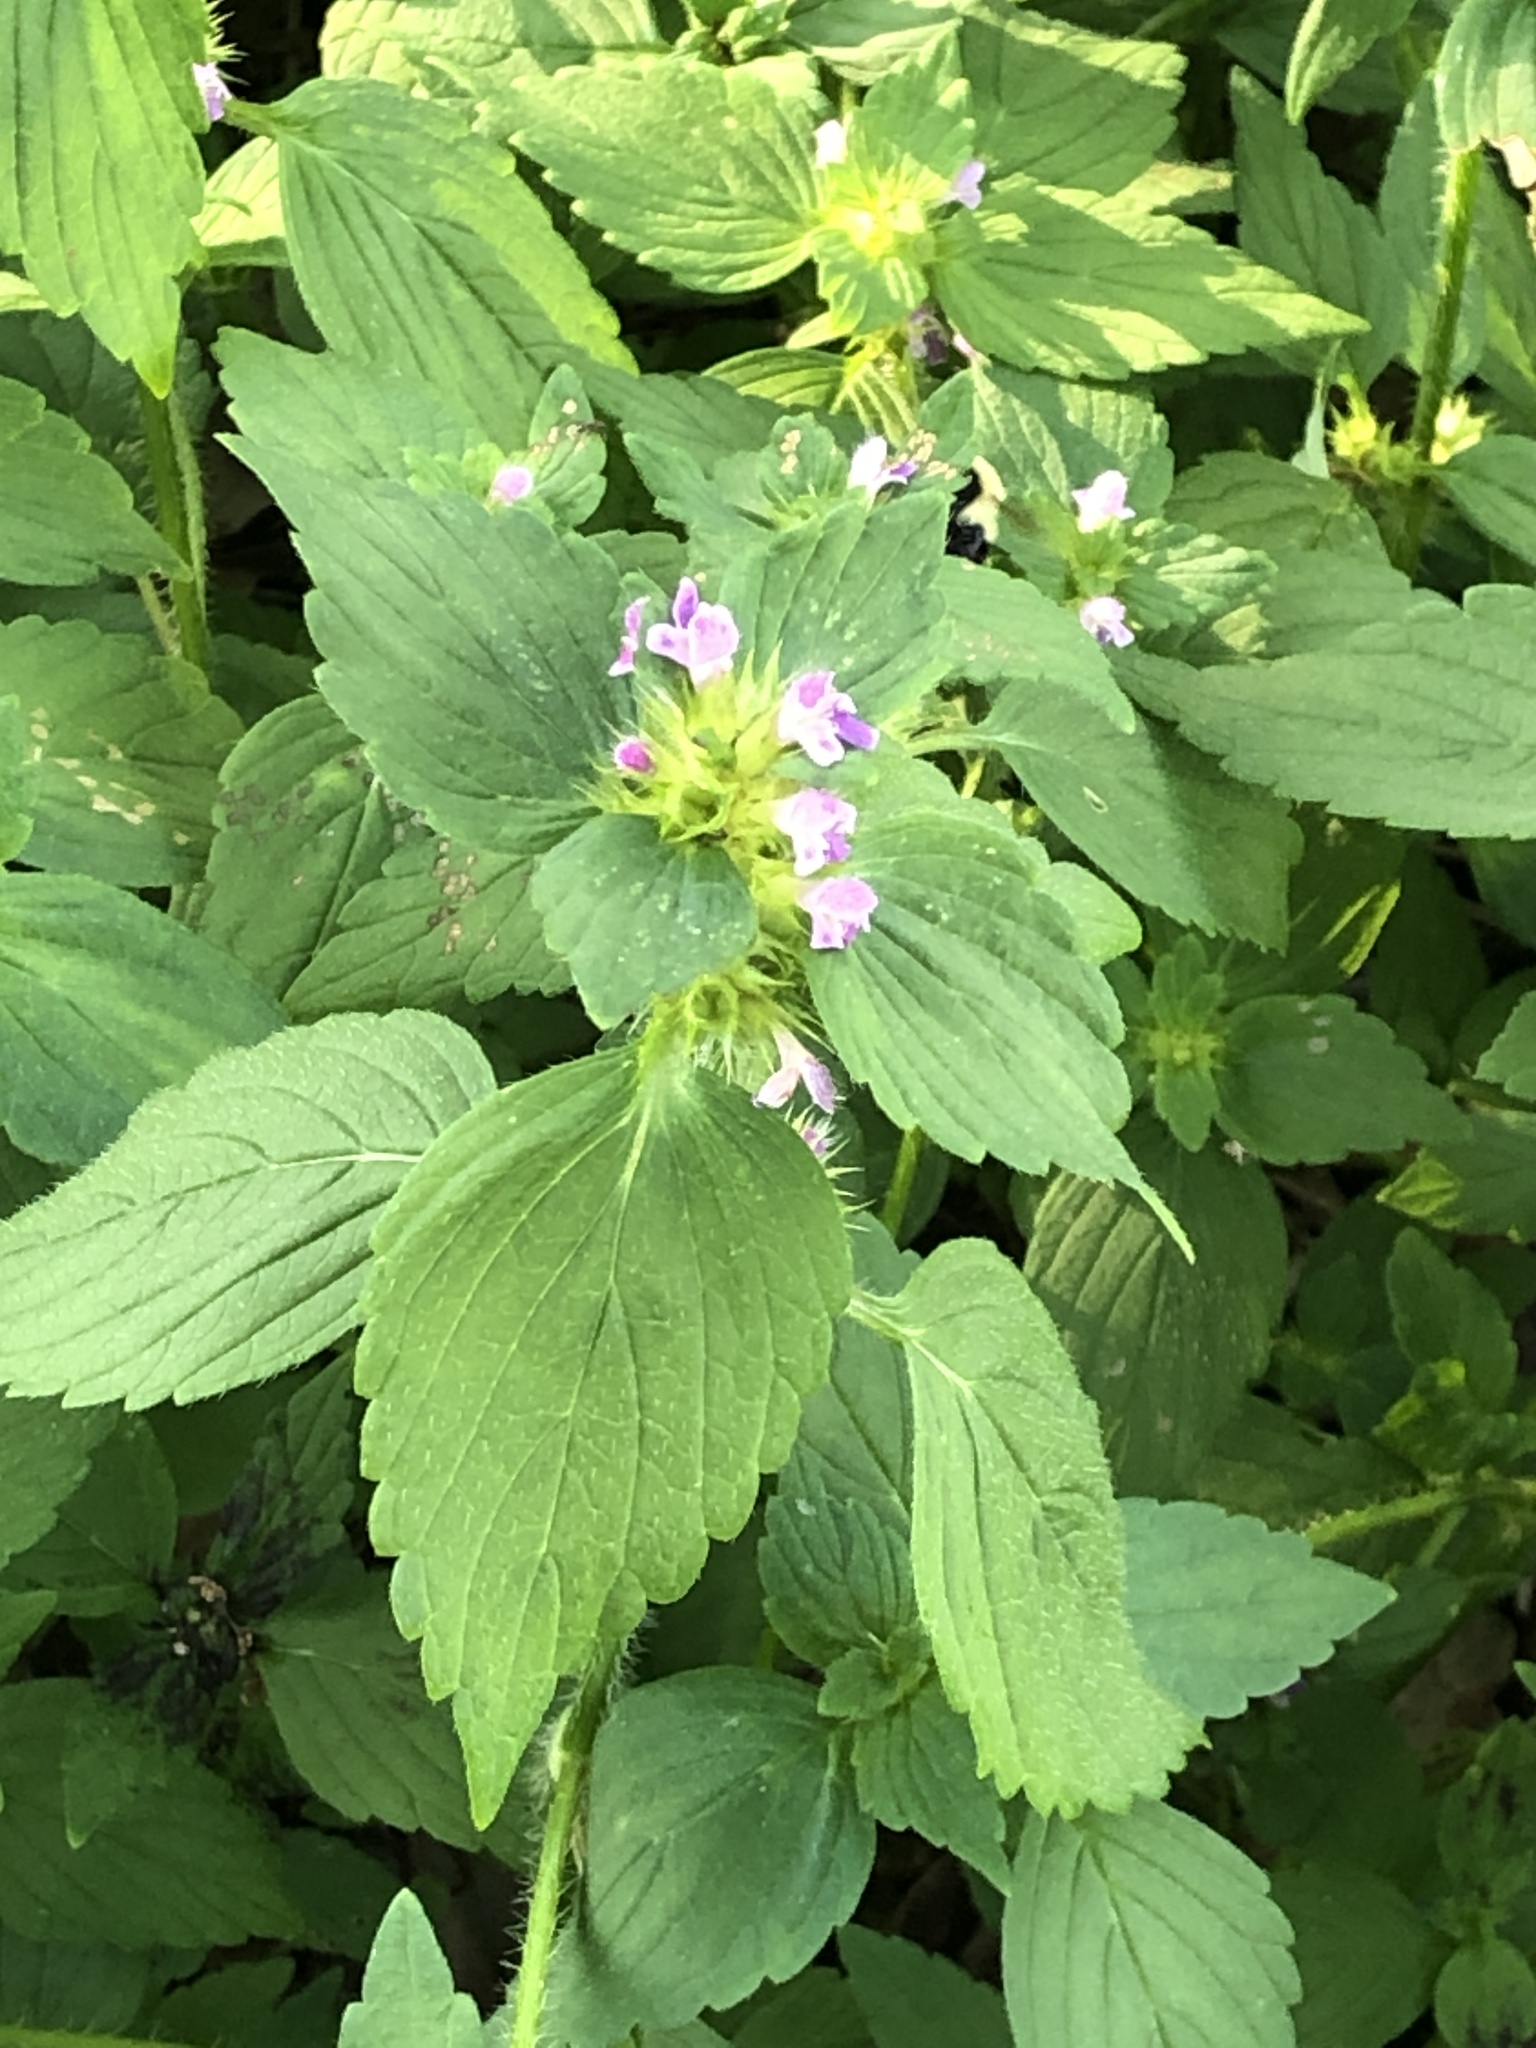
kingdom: Plantae
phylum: Tracheophyta
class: Magnoliopsida
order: Lamiales
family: Lamiaceae
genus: Galeopsis
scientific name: Galeopsis tetrahit
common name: Common hemp-nettle
